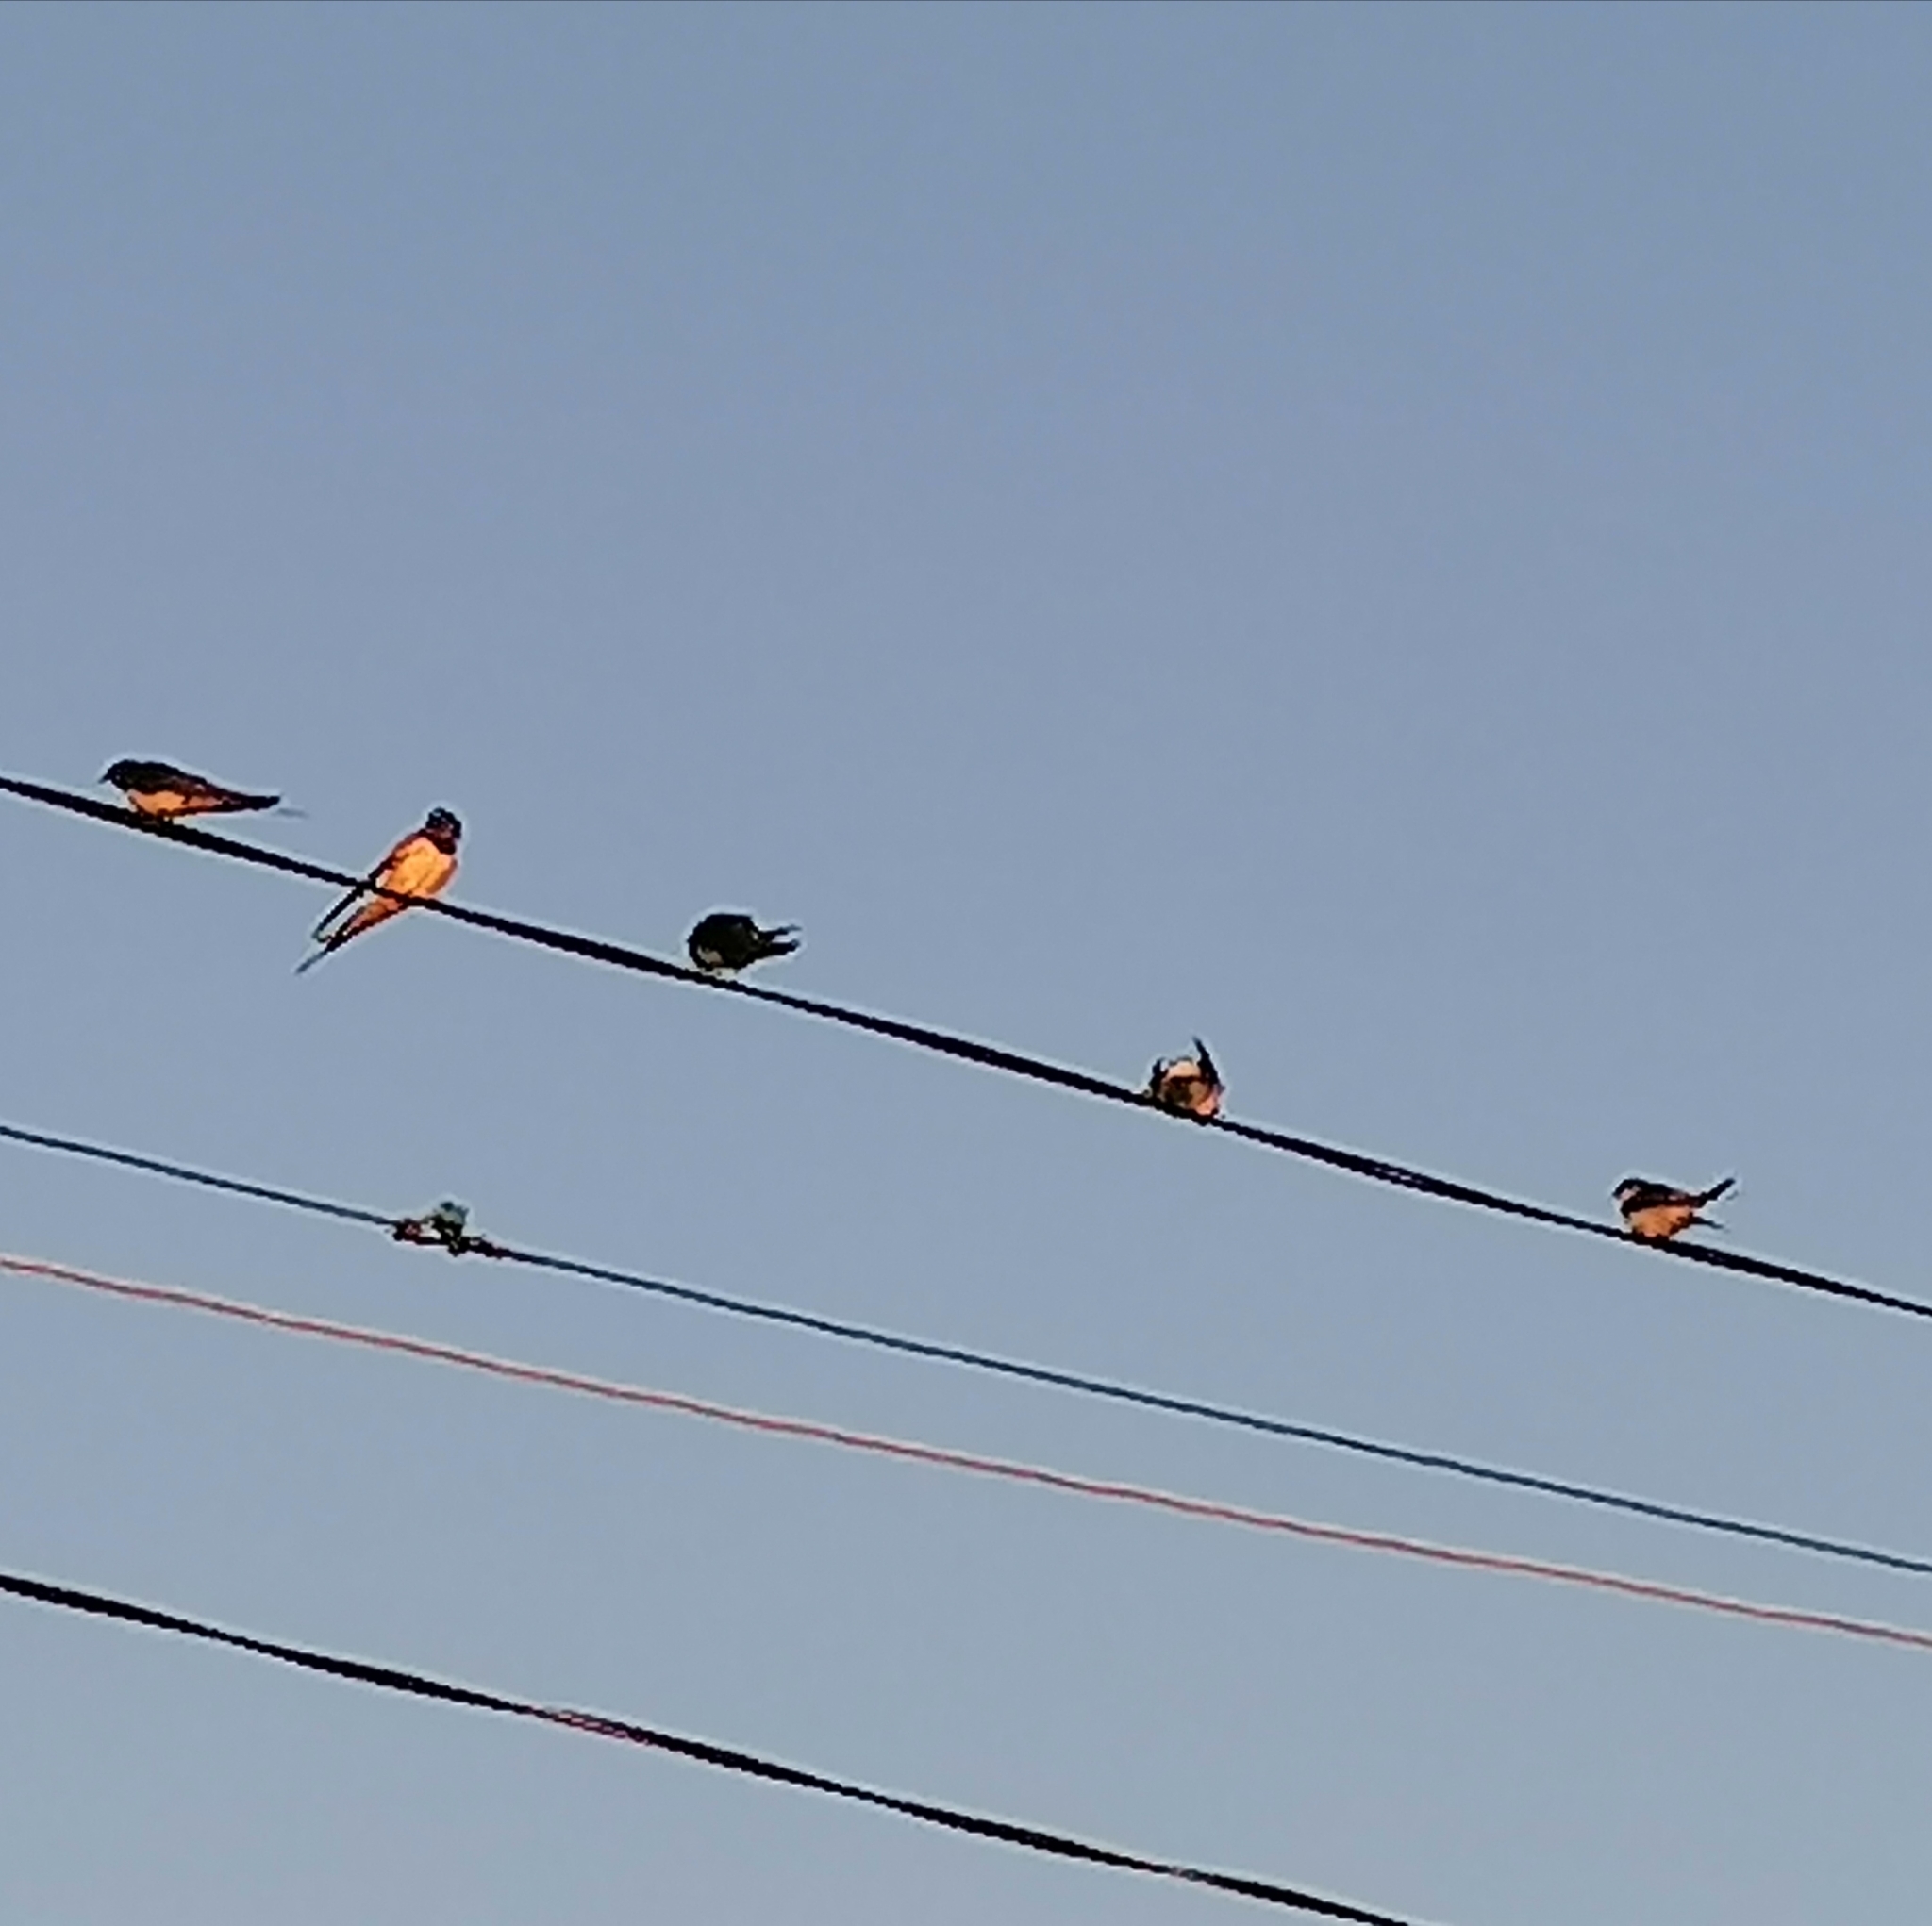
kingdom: Animalia
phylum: Chordata
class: Aves
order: Passeriformes
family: Hirundinidae
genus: Hirundo
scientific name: Hirundo rustica
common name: Barn swallow
